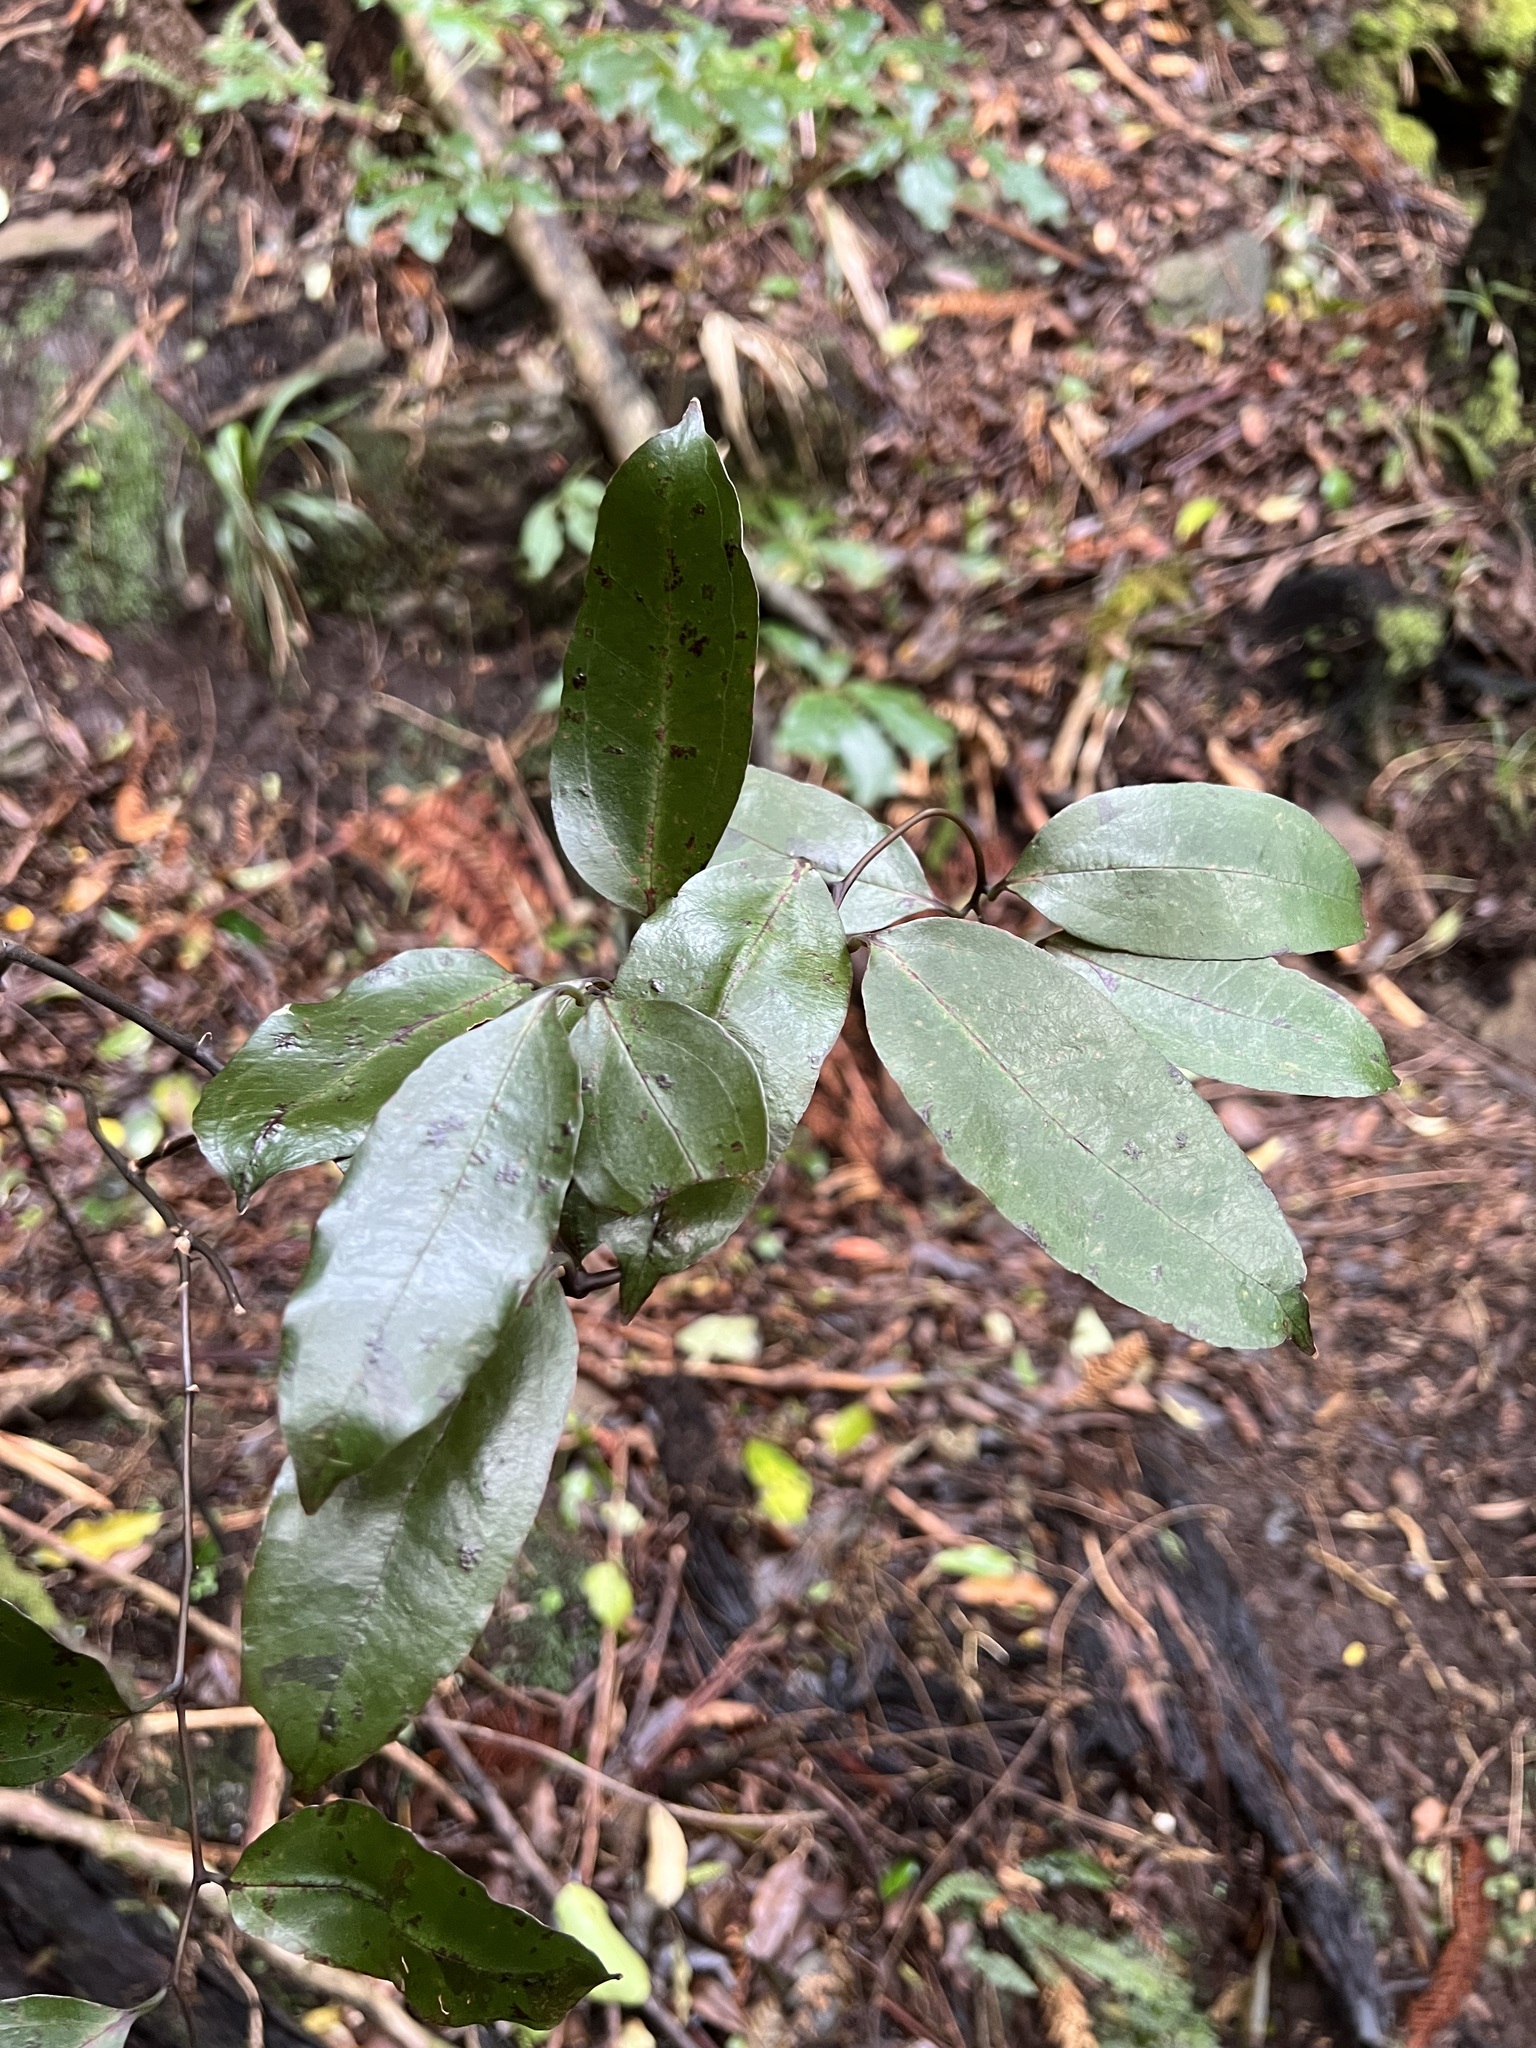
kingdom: Plantae
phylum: Tracheophyta
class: Liliopsida
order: Liliales
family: Ripogonaceae
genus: Ripogonum
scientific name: Ripogonum scandens
